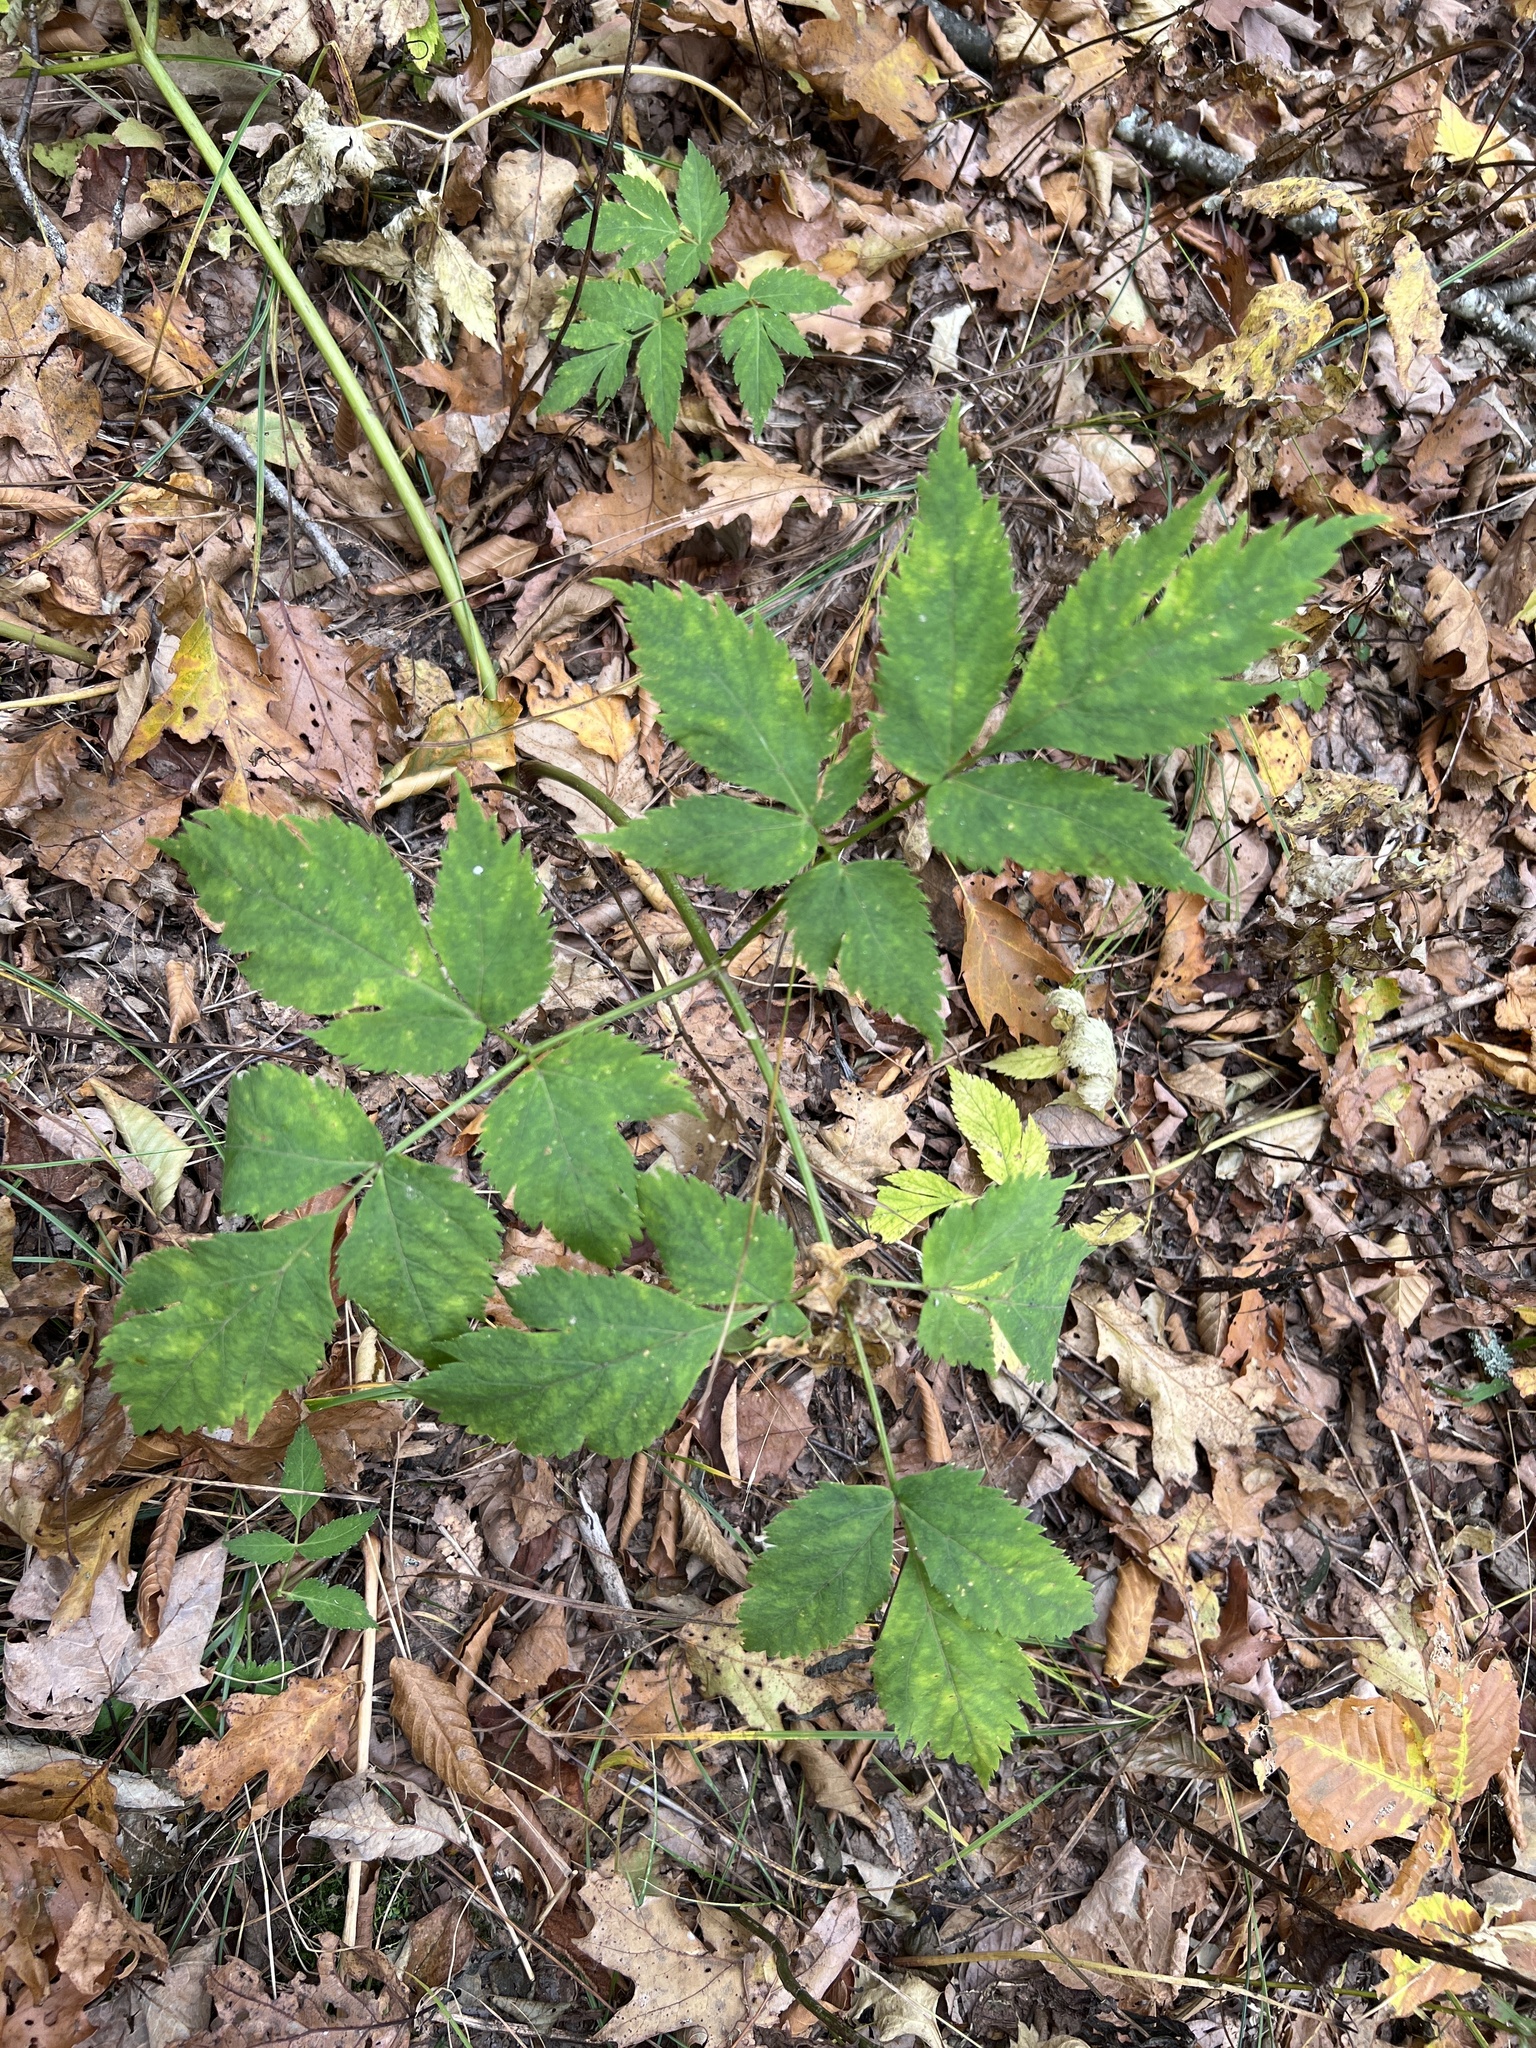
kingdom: Plantae
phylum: Tracheophyta
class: Magnoliopsida
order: Apiales
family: Apiaceae
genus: Angelica
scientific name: Angelica triquinata
